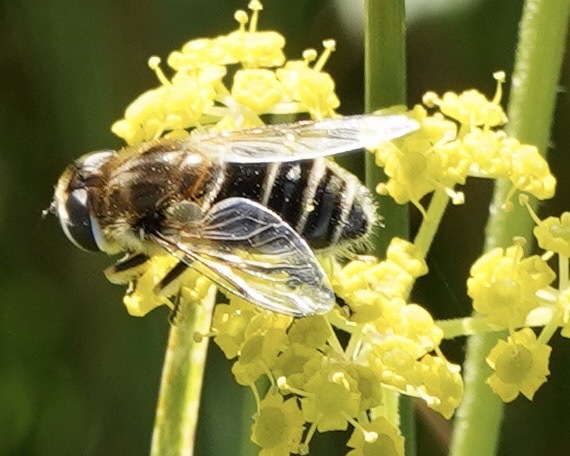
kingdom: Animalia
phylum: Arthropoda
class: Insecta
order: Diptera
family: Syrphidae
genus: Eristalis
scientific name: Eristalis arbustorum
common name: Hover fly
